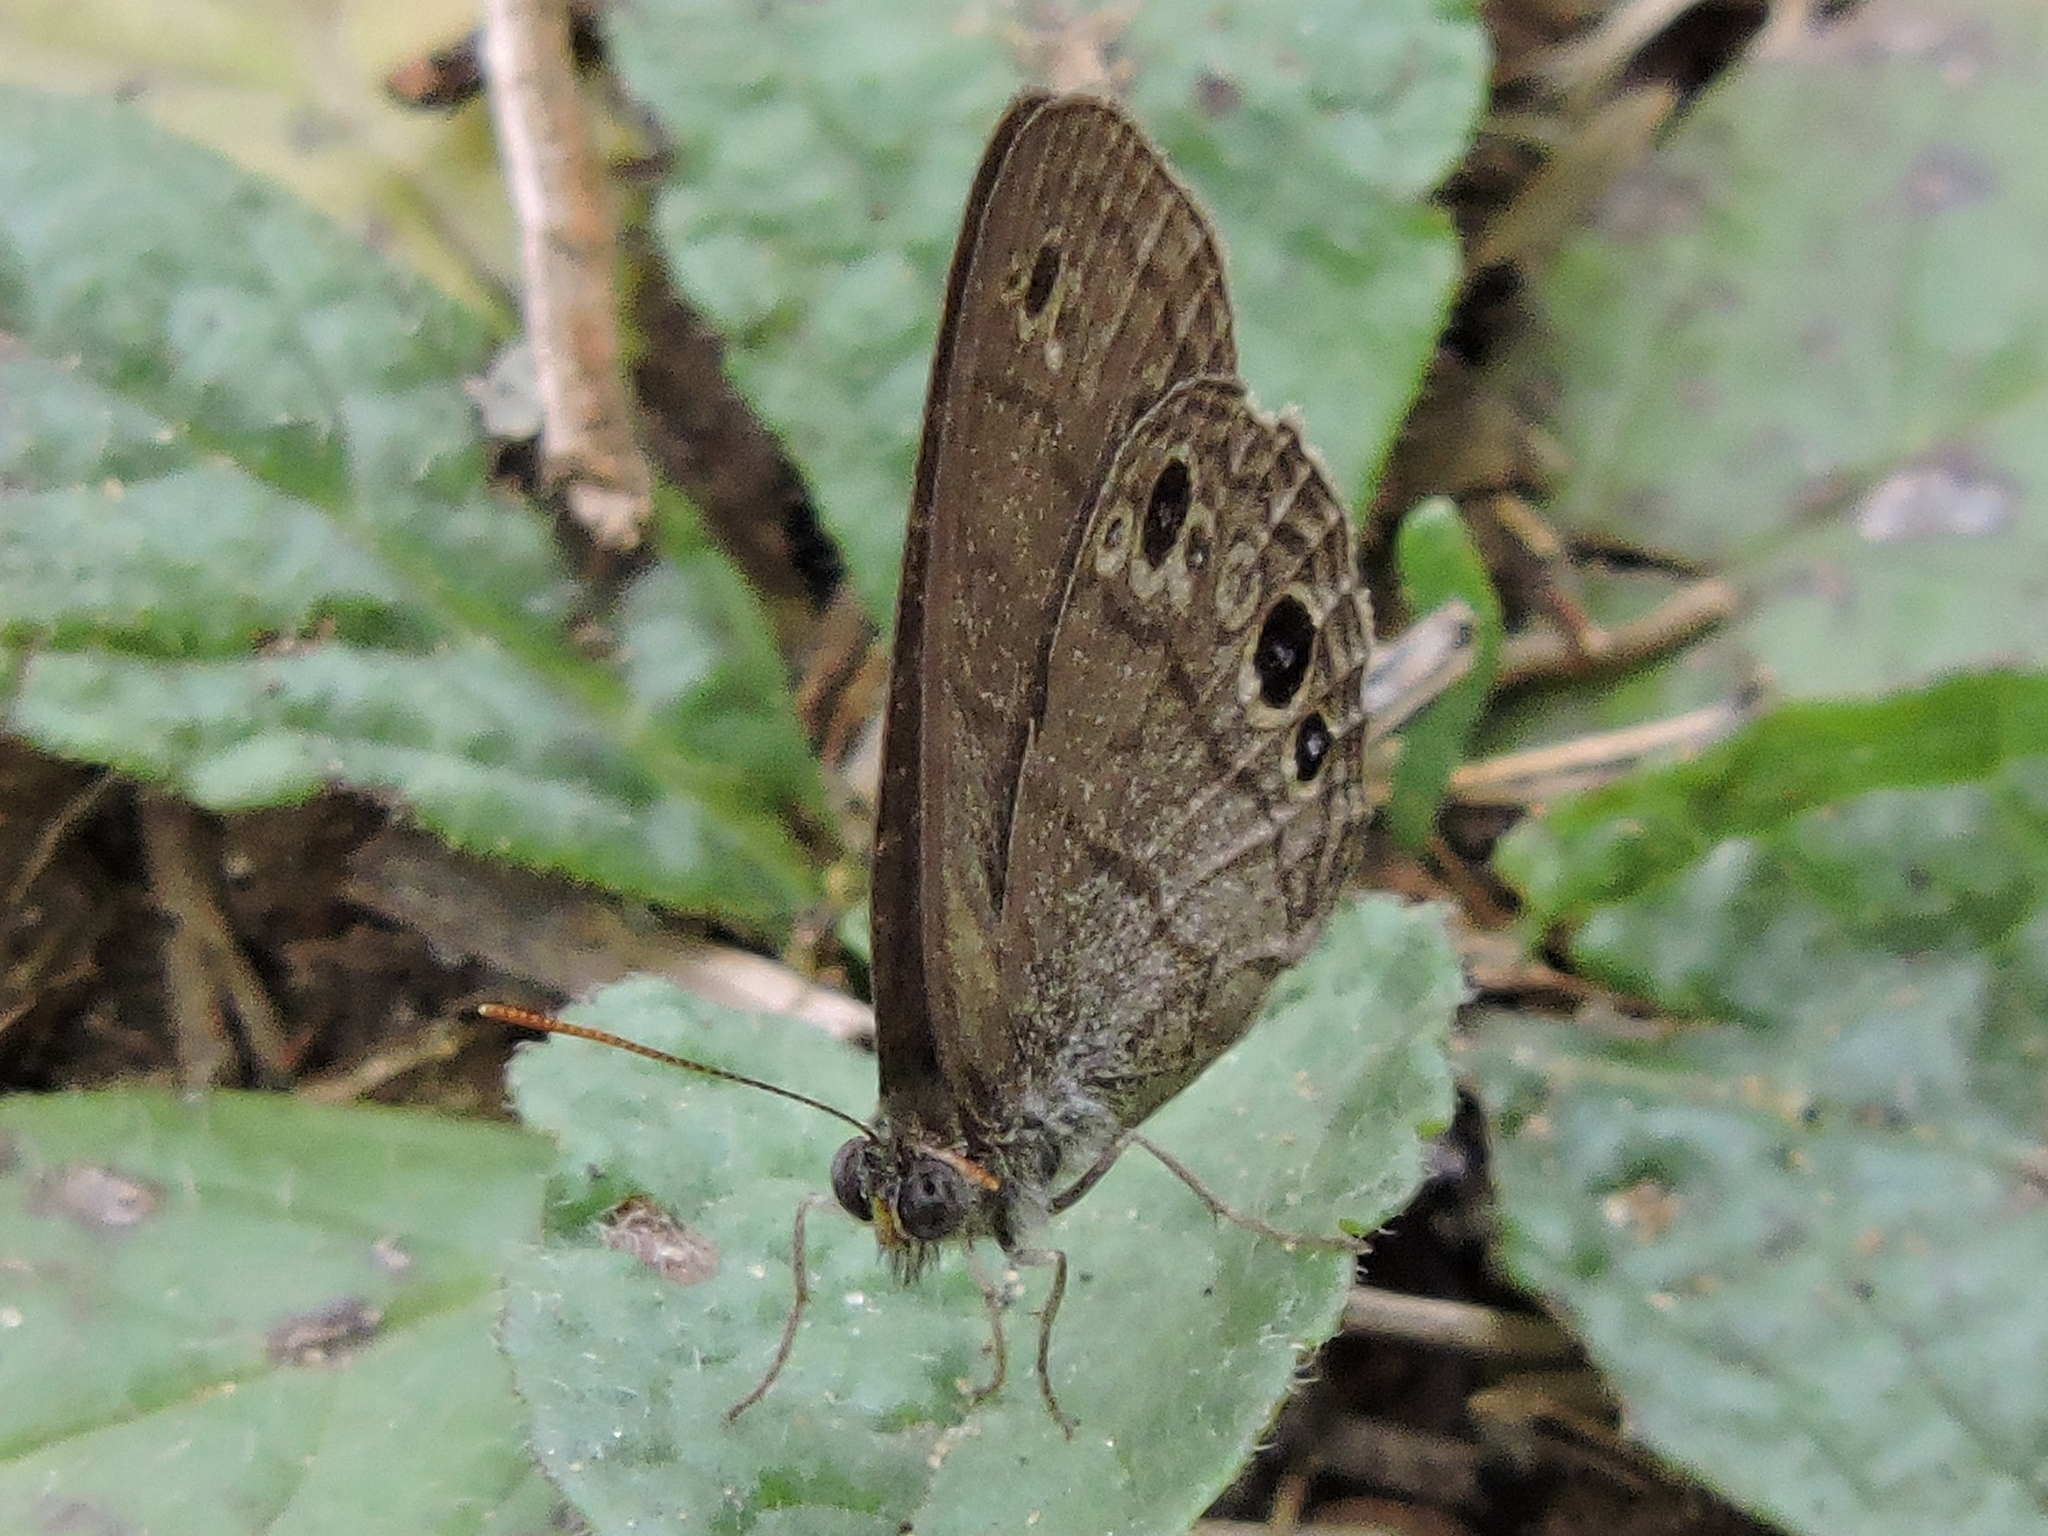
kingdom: Animalia
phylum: Arthropoda
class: Insecta
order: Lepidoptera
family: Nymphalidae
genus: Hermeuptychia
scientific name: Hermeuptychia hermes
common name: Hermes satyr
